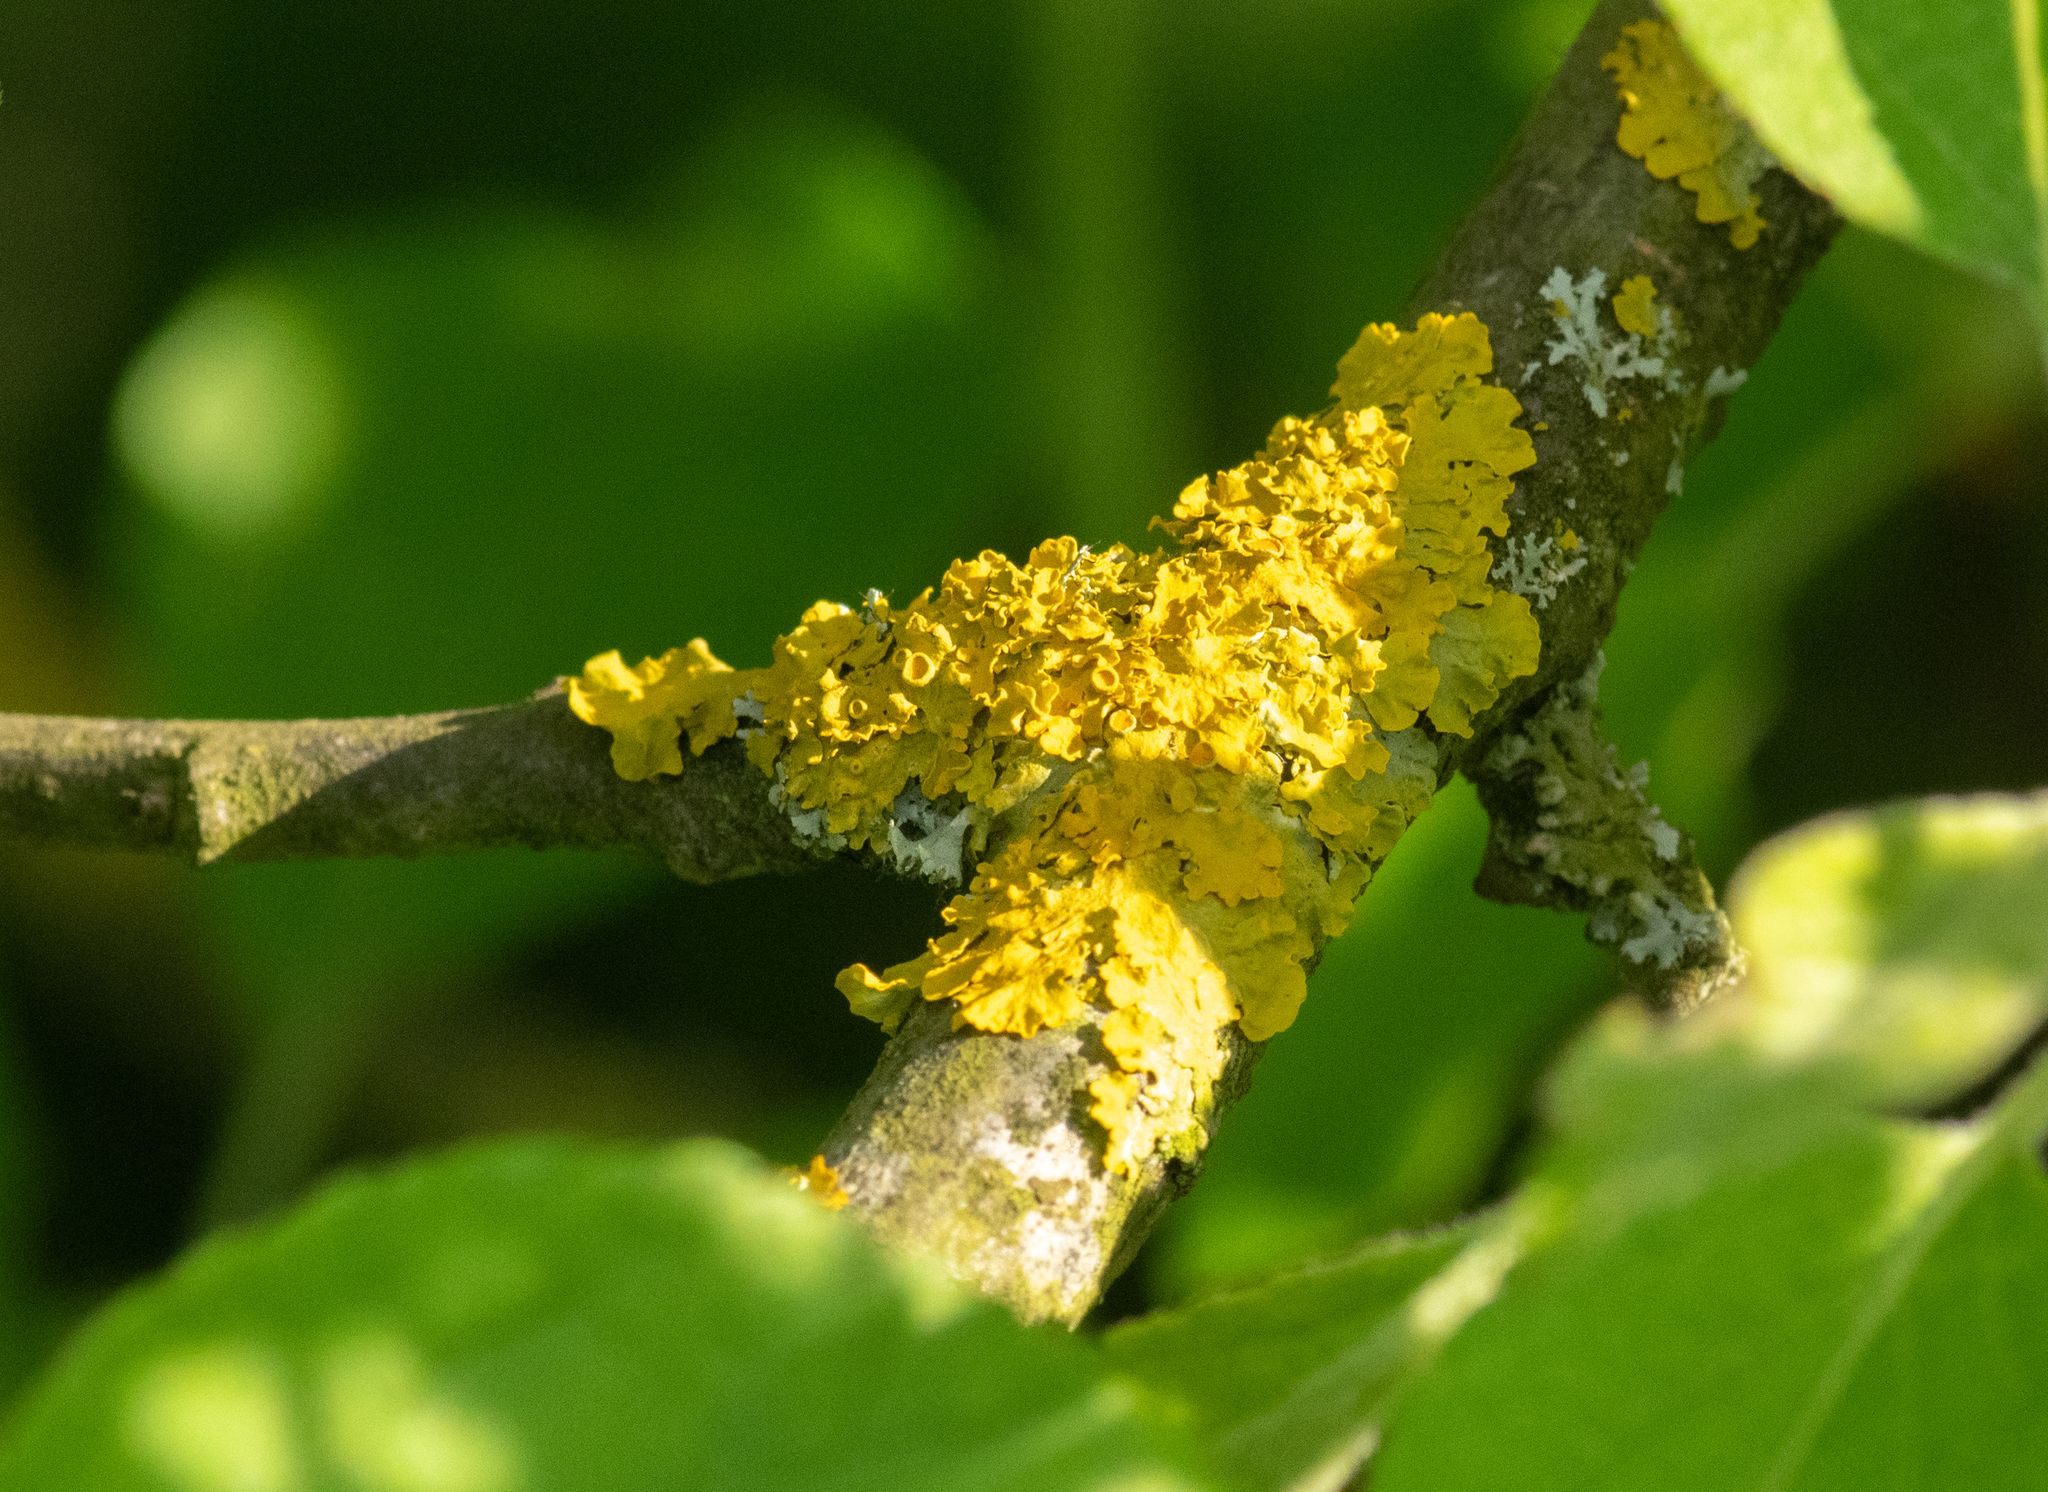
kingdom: Fungi
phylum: Ascomycota
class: Lecanoromycetes
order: Teloschistales
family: Teloschistaceae
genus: Xanthoria
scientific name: Xanthoria parietina
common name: Common orange lichen
